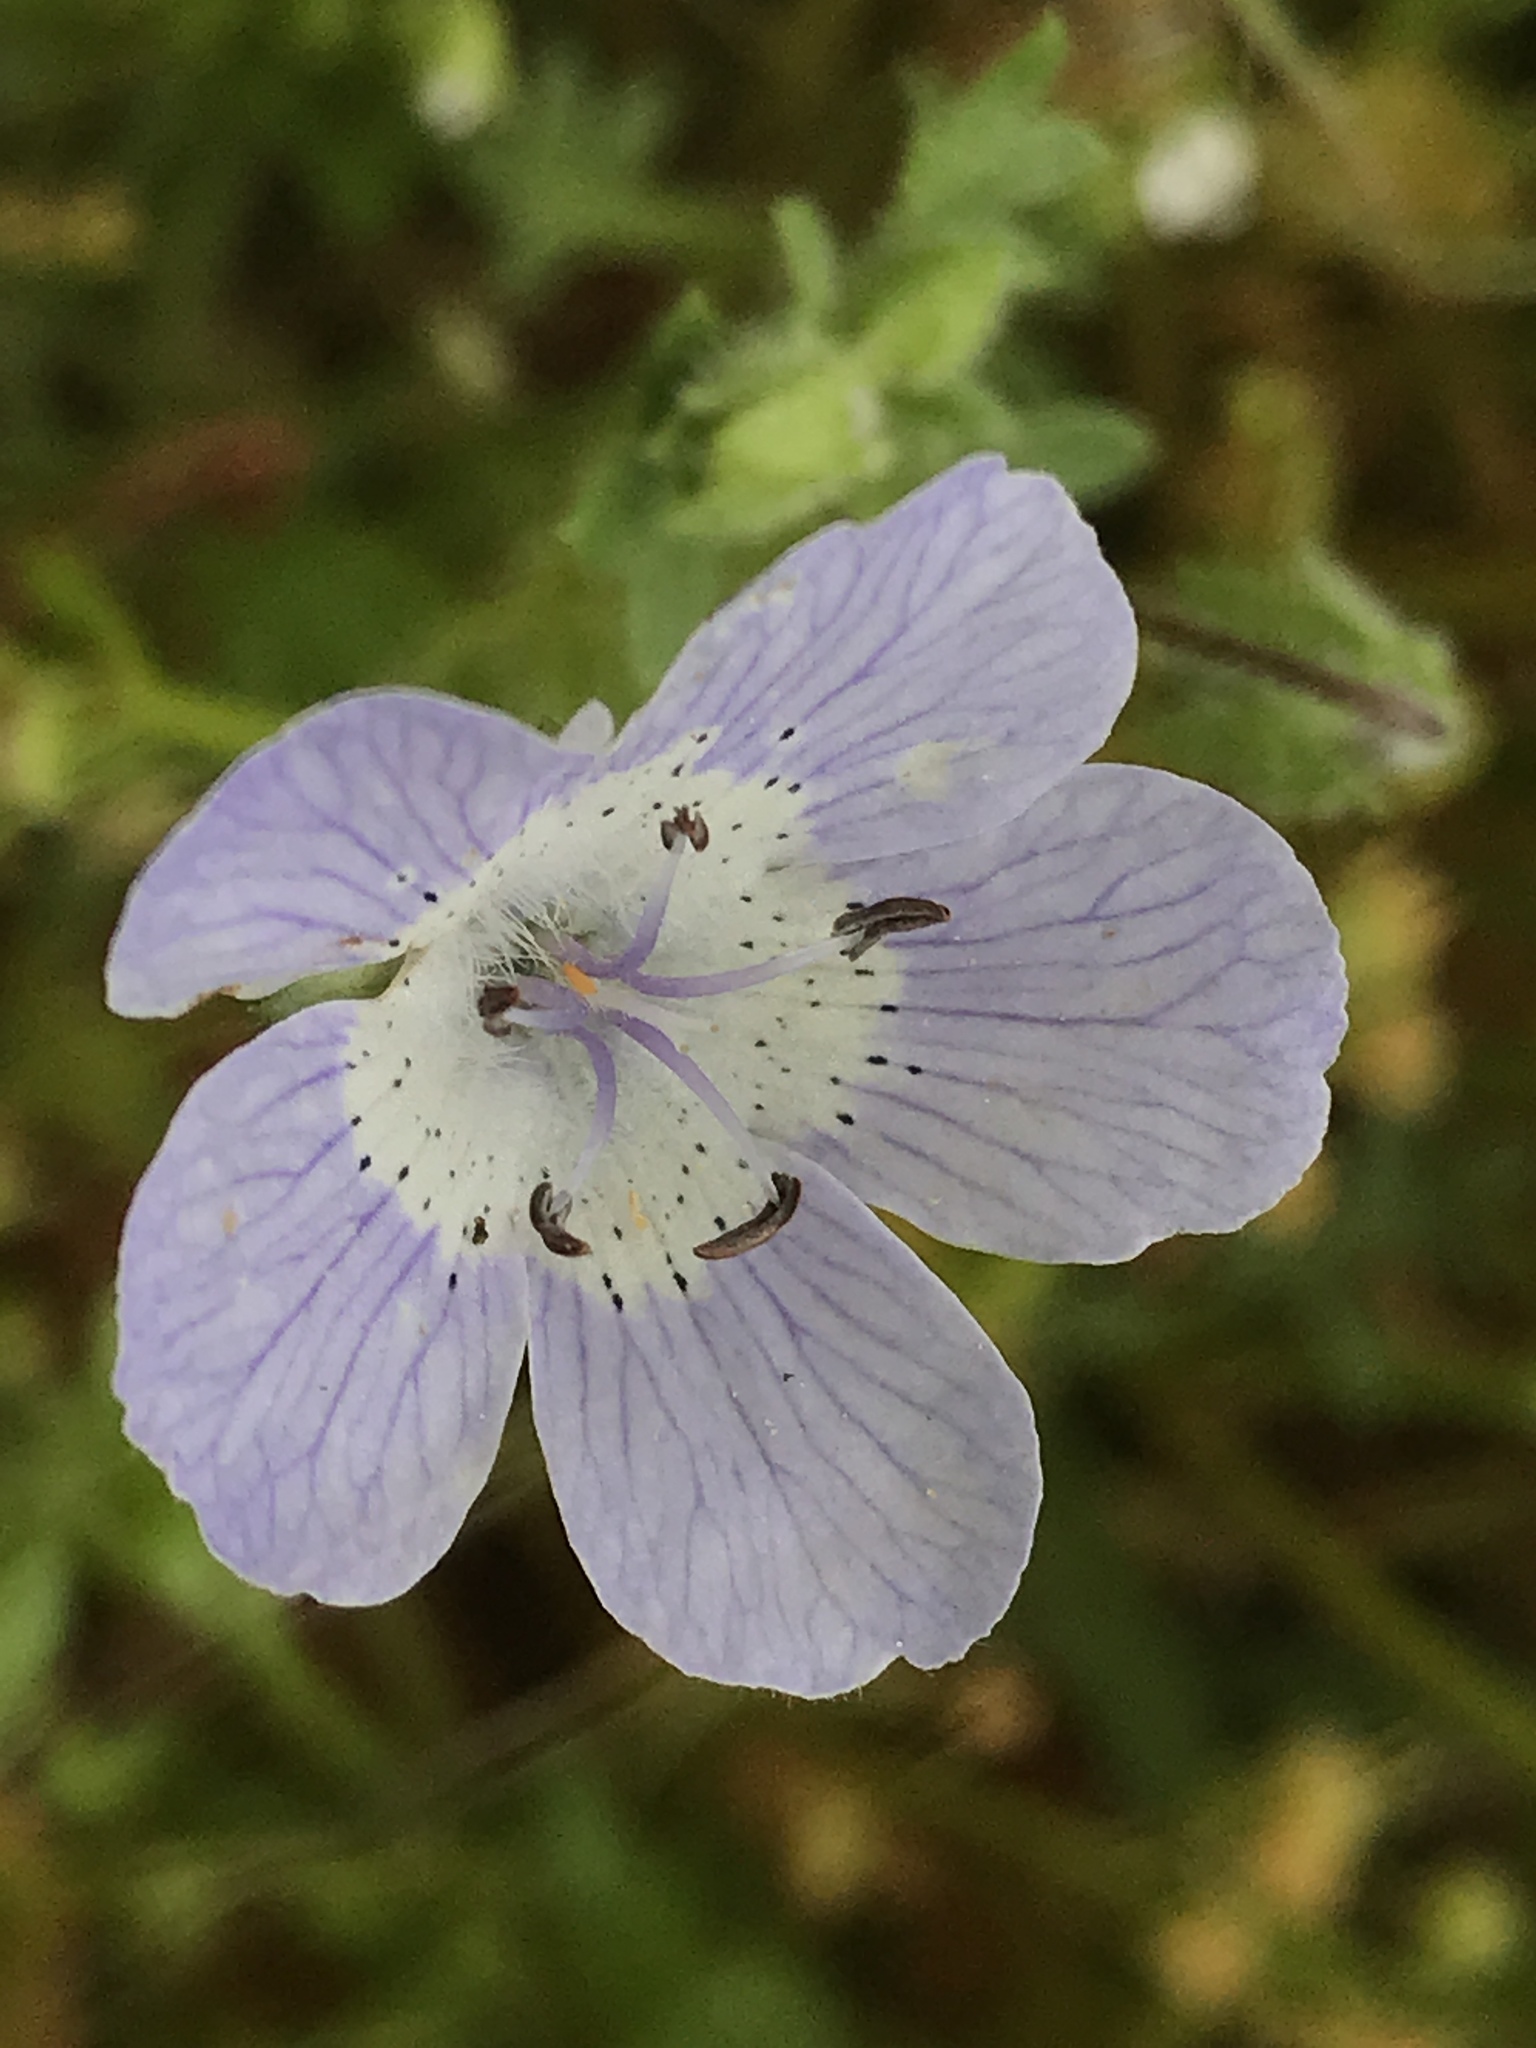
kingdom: Plantae
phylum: Tracheophyta
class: Magnoliopsida
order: Boraginales
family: Hydrophyllaceae
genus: Nemophila
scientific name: Nemophila menziesii
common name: Baby's-blue-eyes
